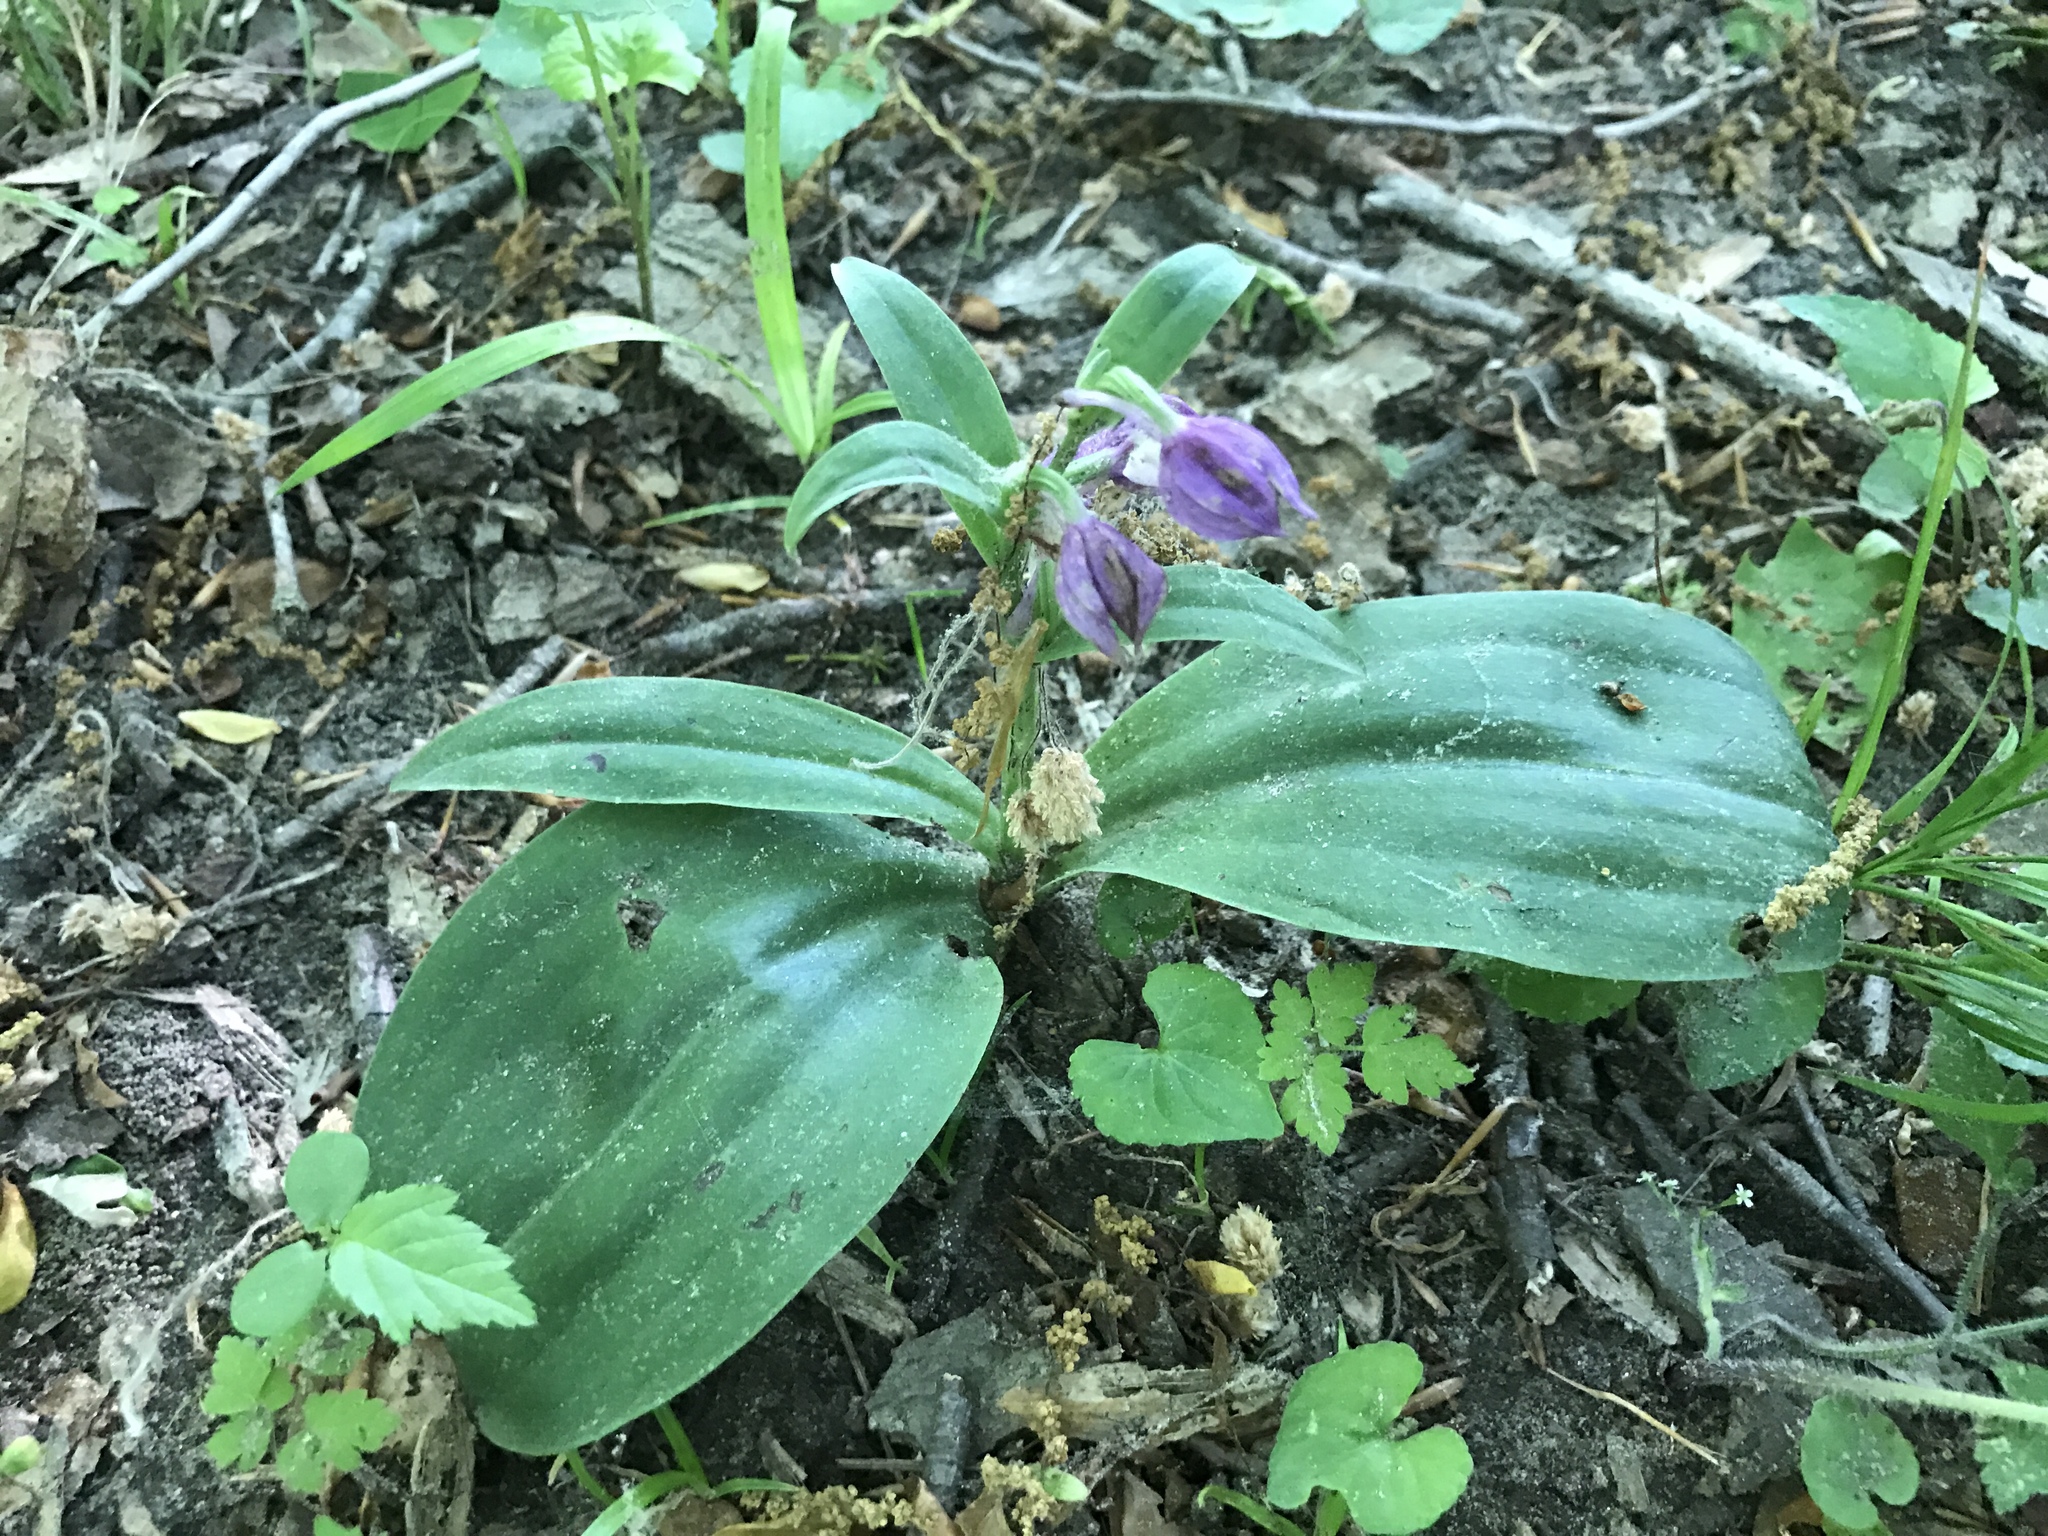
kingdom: Plantae
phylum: Tracheophyta
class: Liliopsida
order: Asparagales
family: Orchidaceae
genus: Galearis
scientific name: Galearis spectabilis
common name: Purple-hooded orchis
